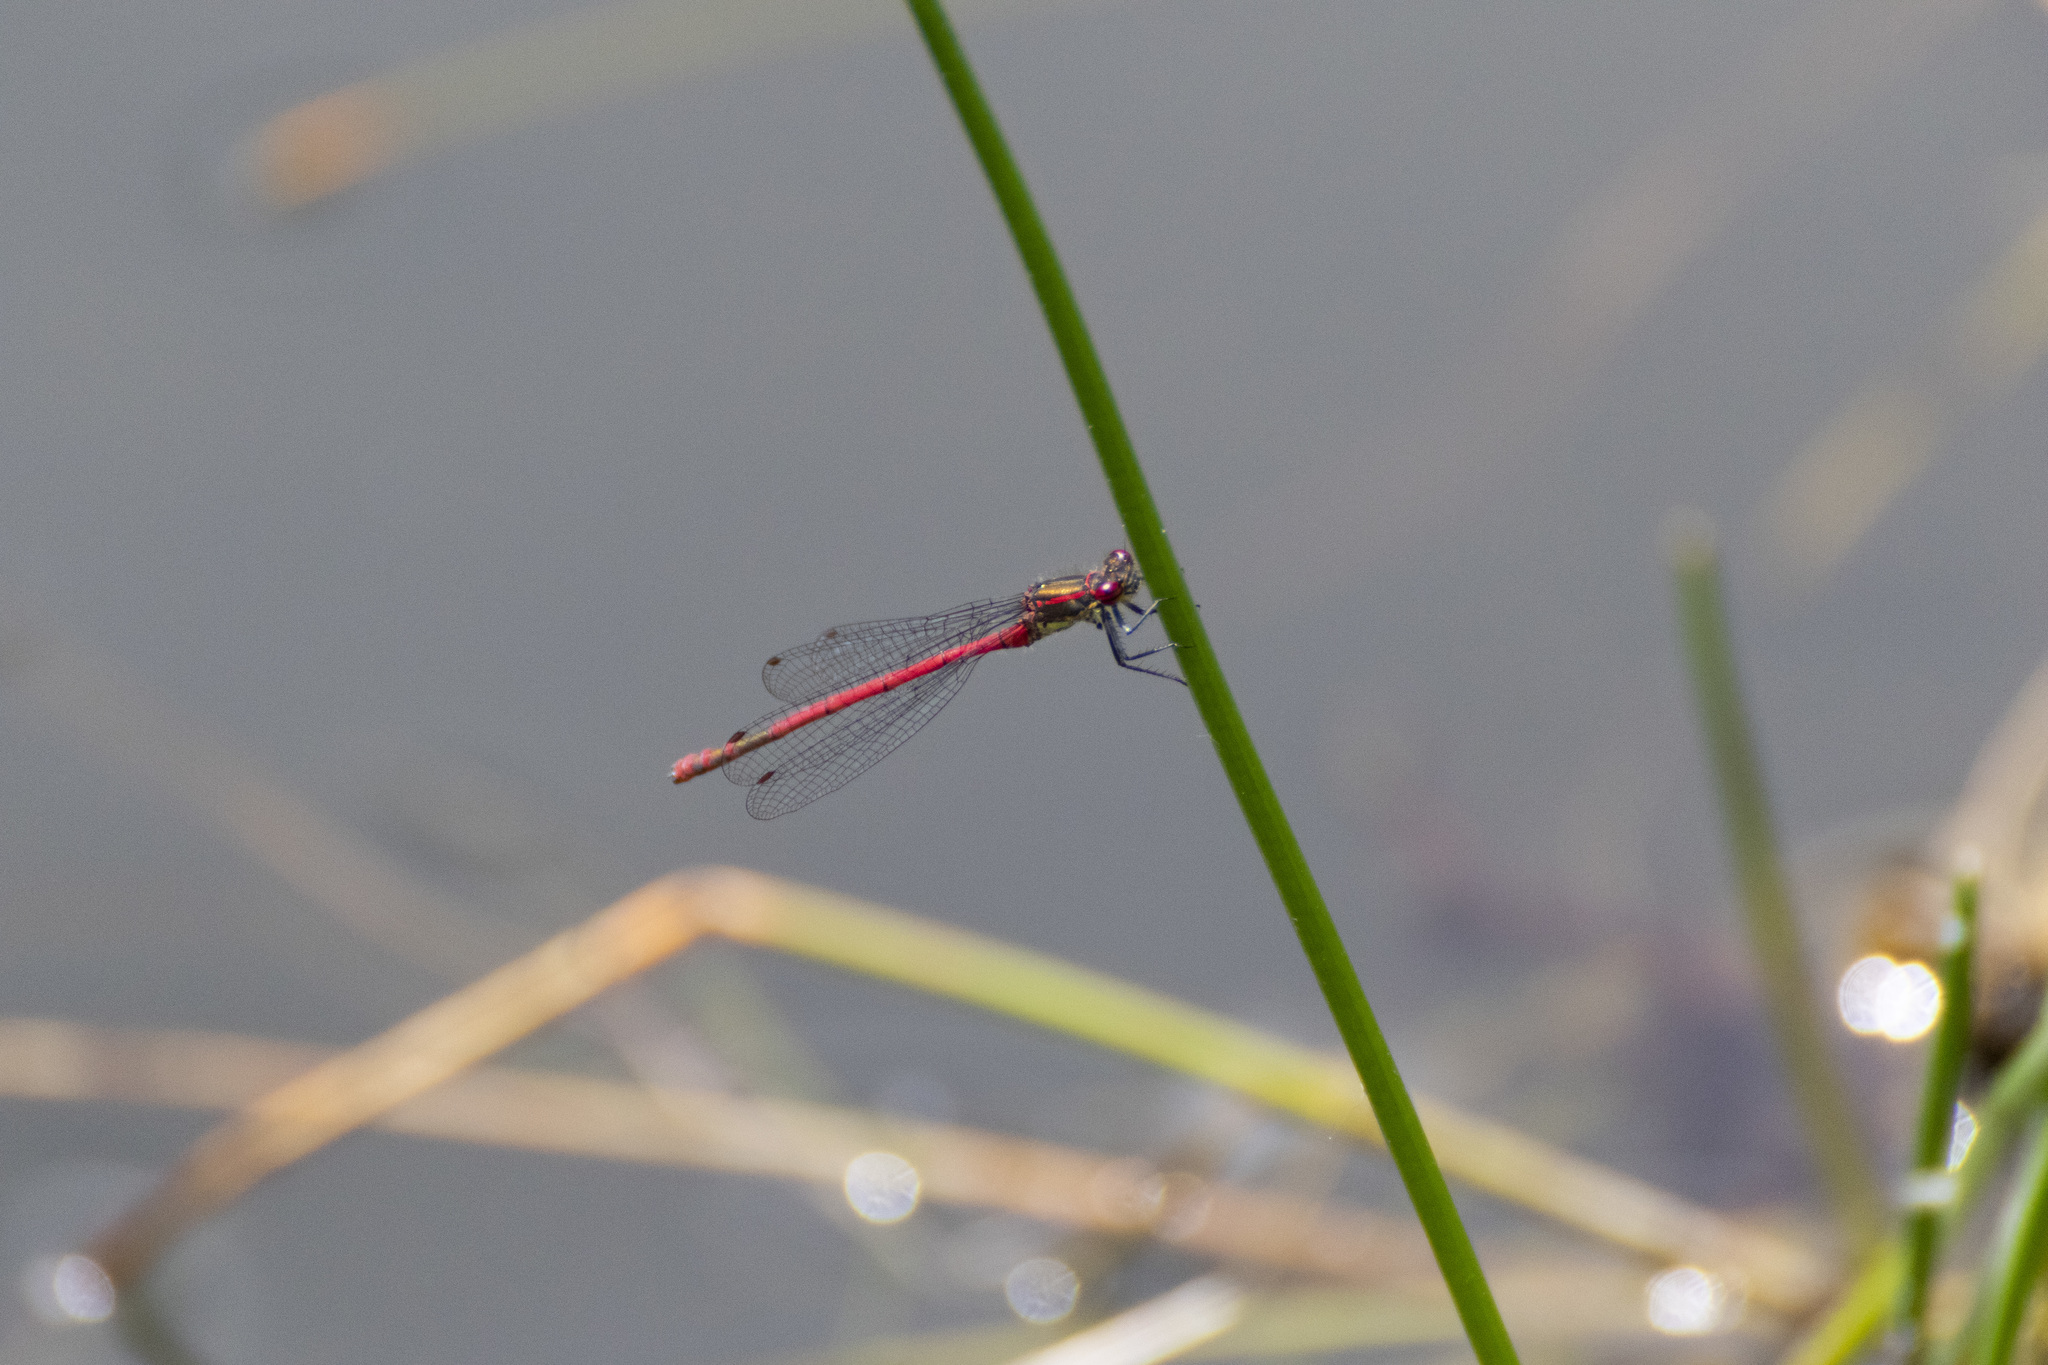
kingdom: Animalia
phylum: Arthropoda
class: Insecta
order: Odonata
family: Coenagrionidae
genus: Pyrrhosoma
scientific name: Pyrrhosoma nymphula
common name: Large red damsel
